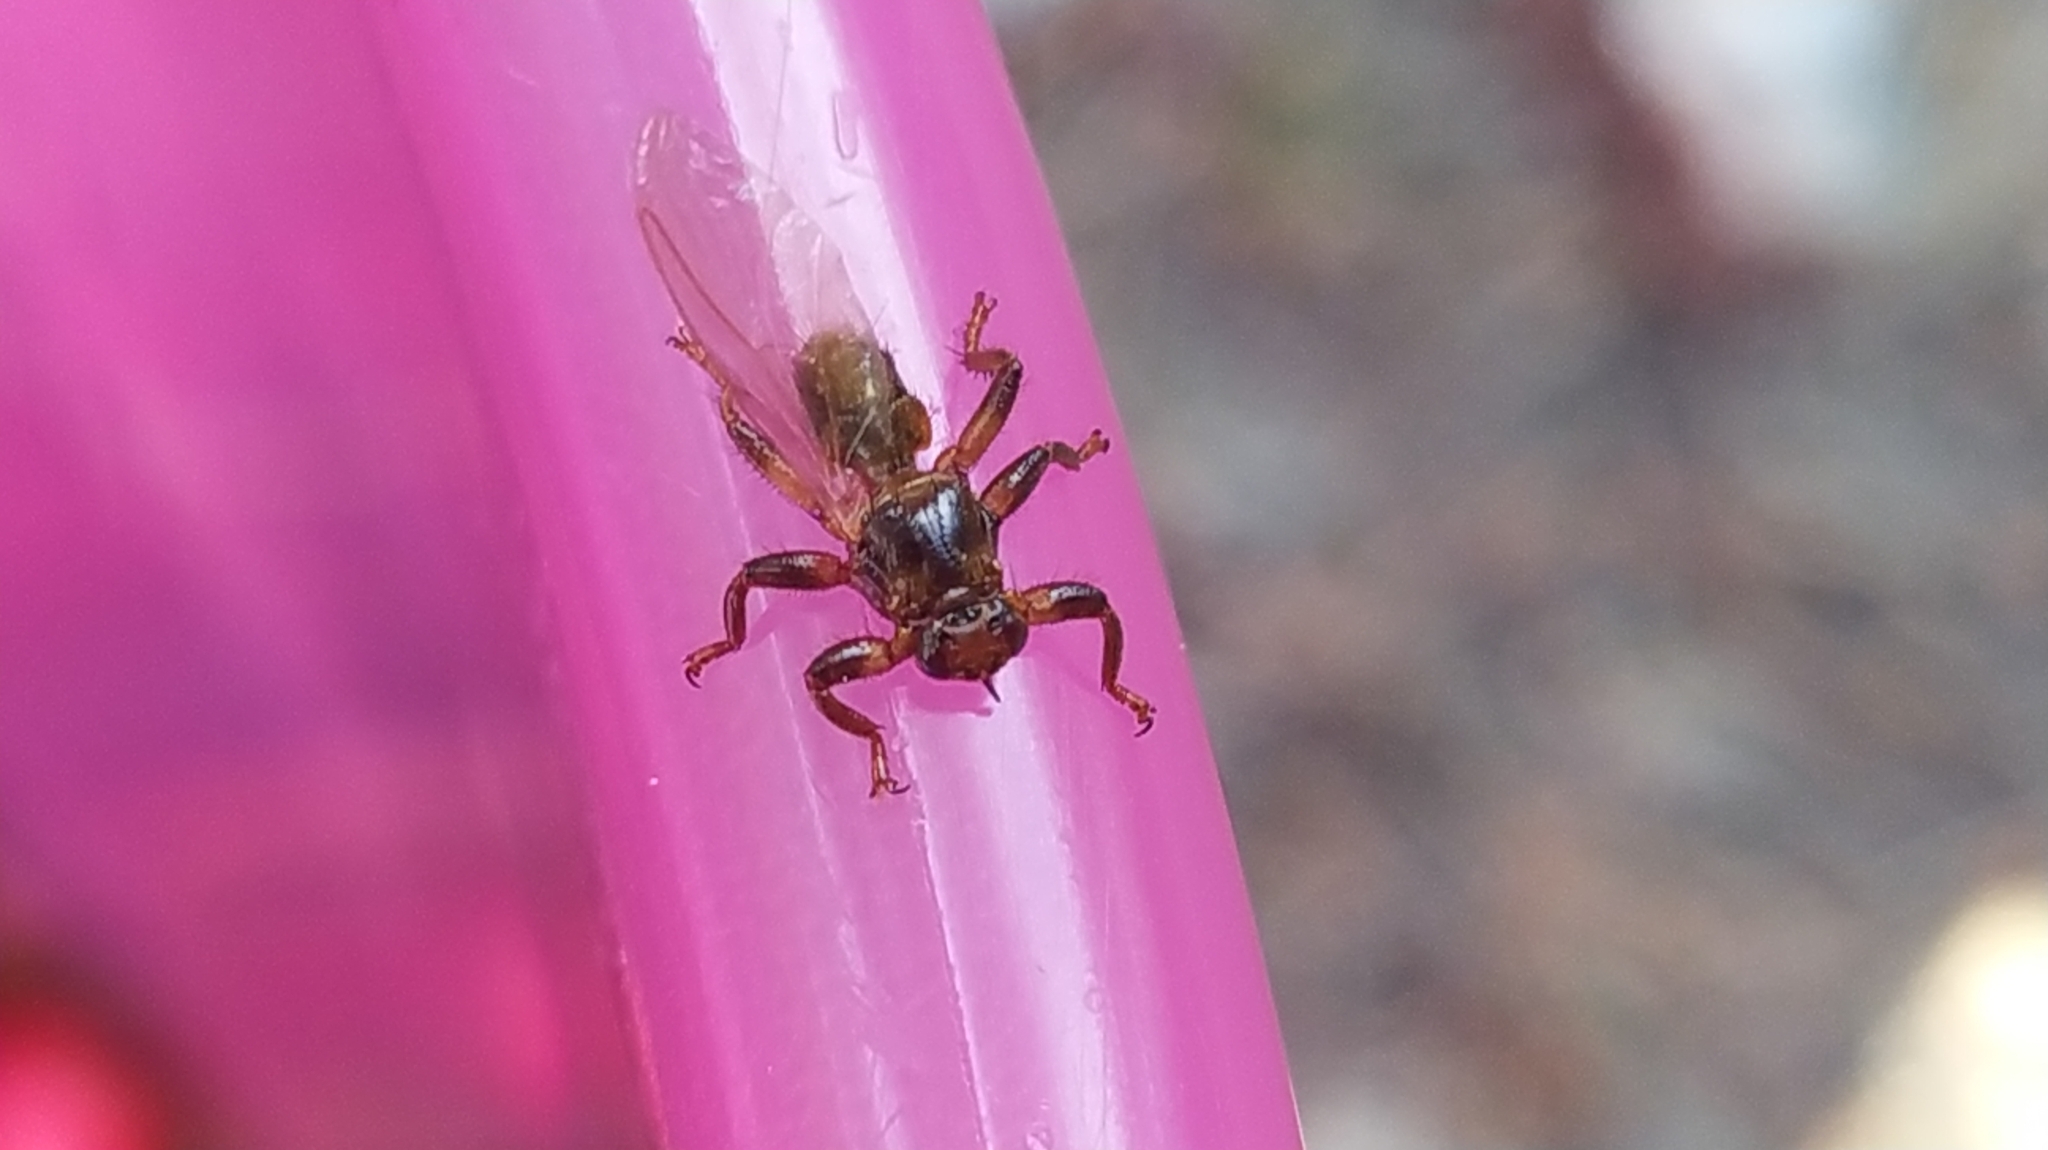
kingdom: Animalia
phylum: Arthropoda
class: Insecta
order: Diptera
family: Hippoboscidae
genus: Lipoptena
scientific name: Lipoptena cervi
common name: Deer ked
